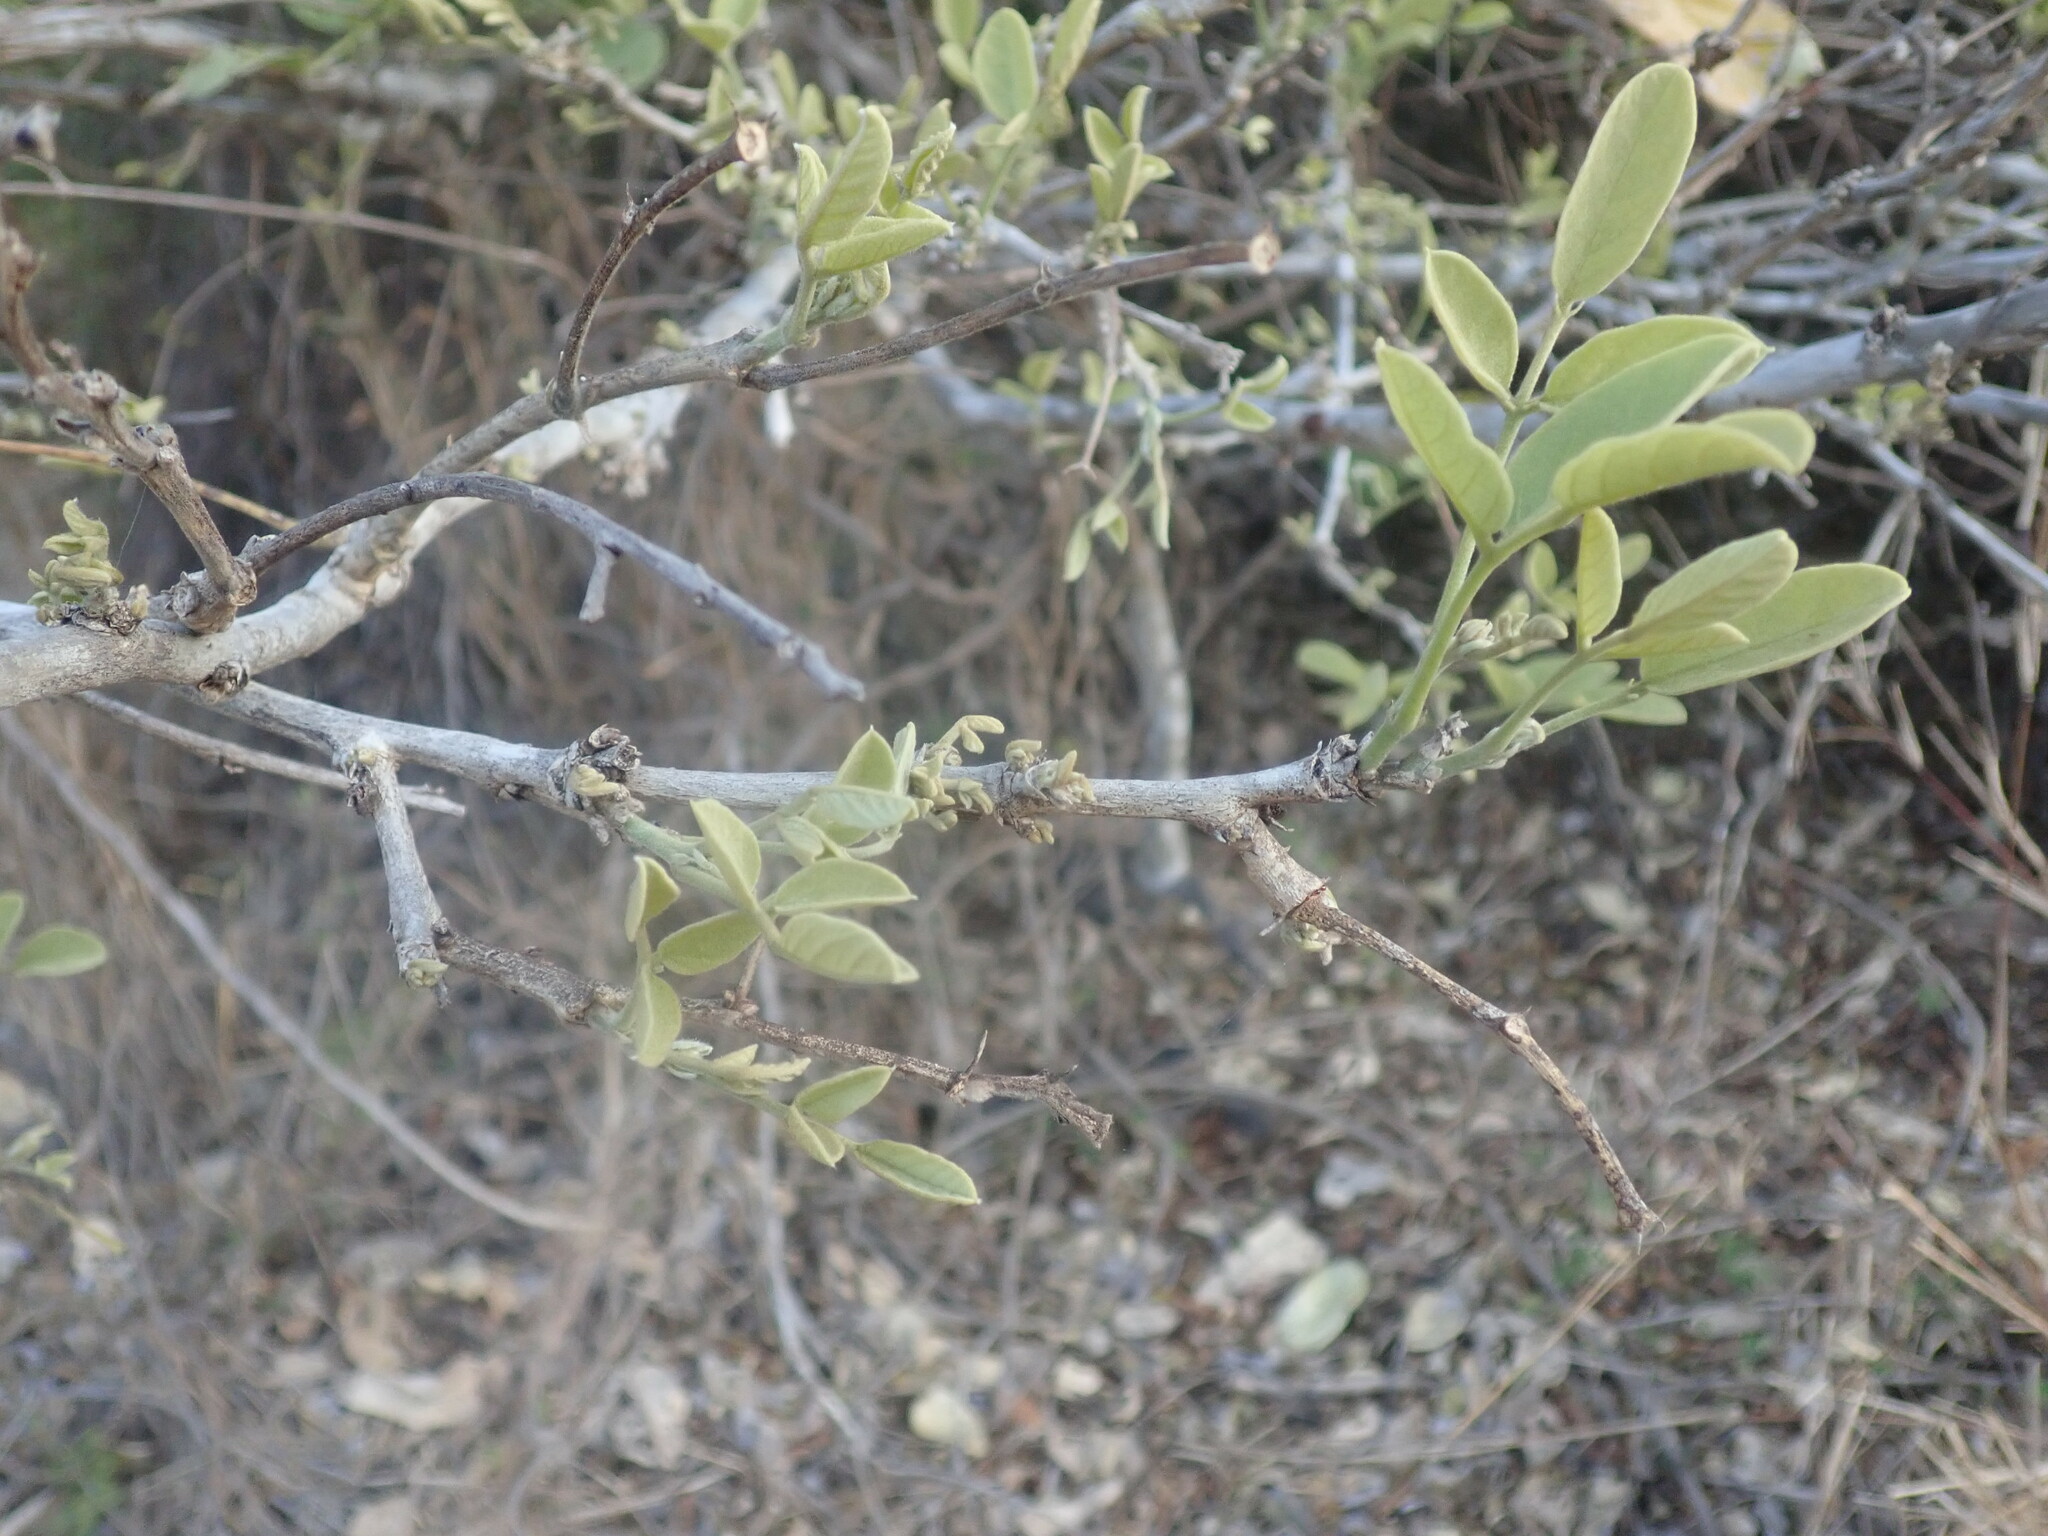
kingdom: Plantae
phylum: Tracheophyta
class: Magnoliopsida
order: Fabales
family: Fabaceae
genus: Philenoptera
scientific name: Philenoptera violacea
